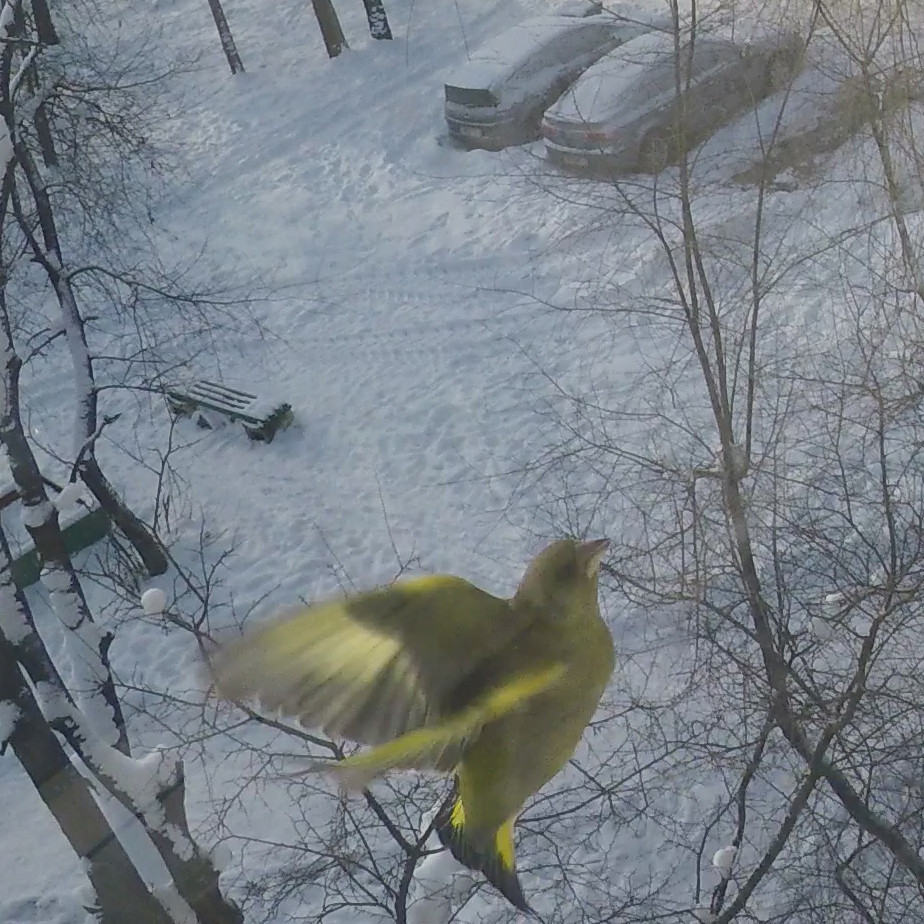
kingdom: Plantae
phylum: Tracheophyta
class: Liliopsida
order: Poales
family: Poaceae
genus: Chloris
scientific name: Chloris chloris
